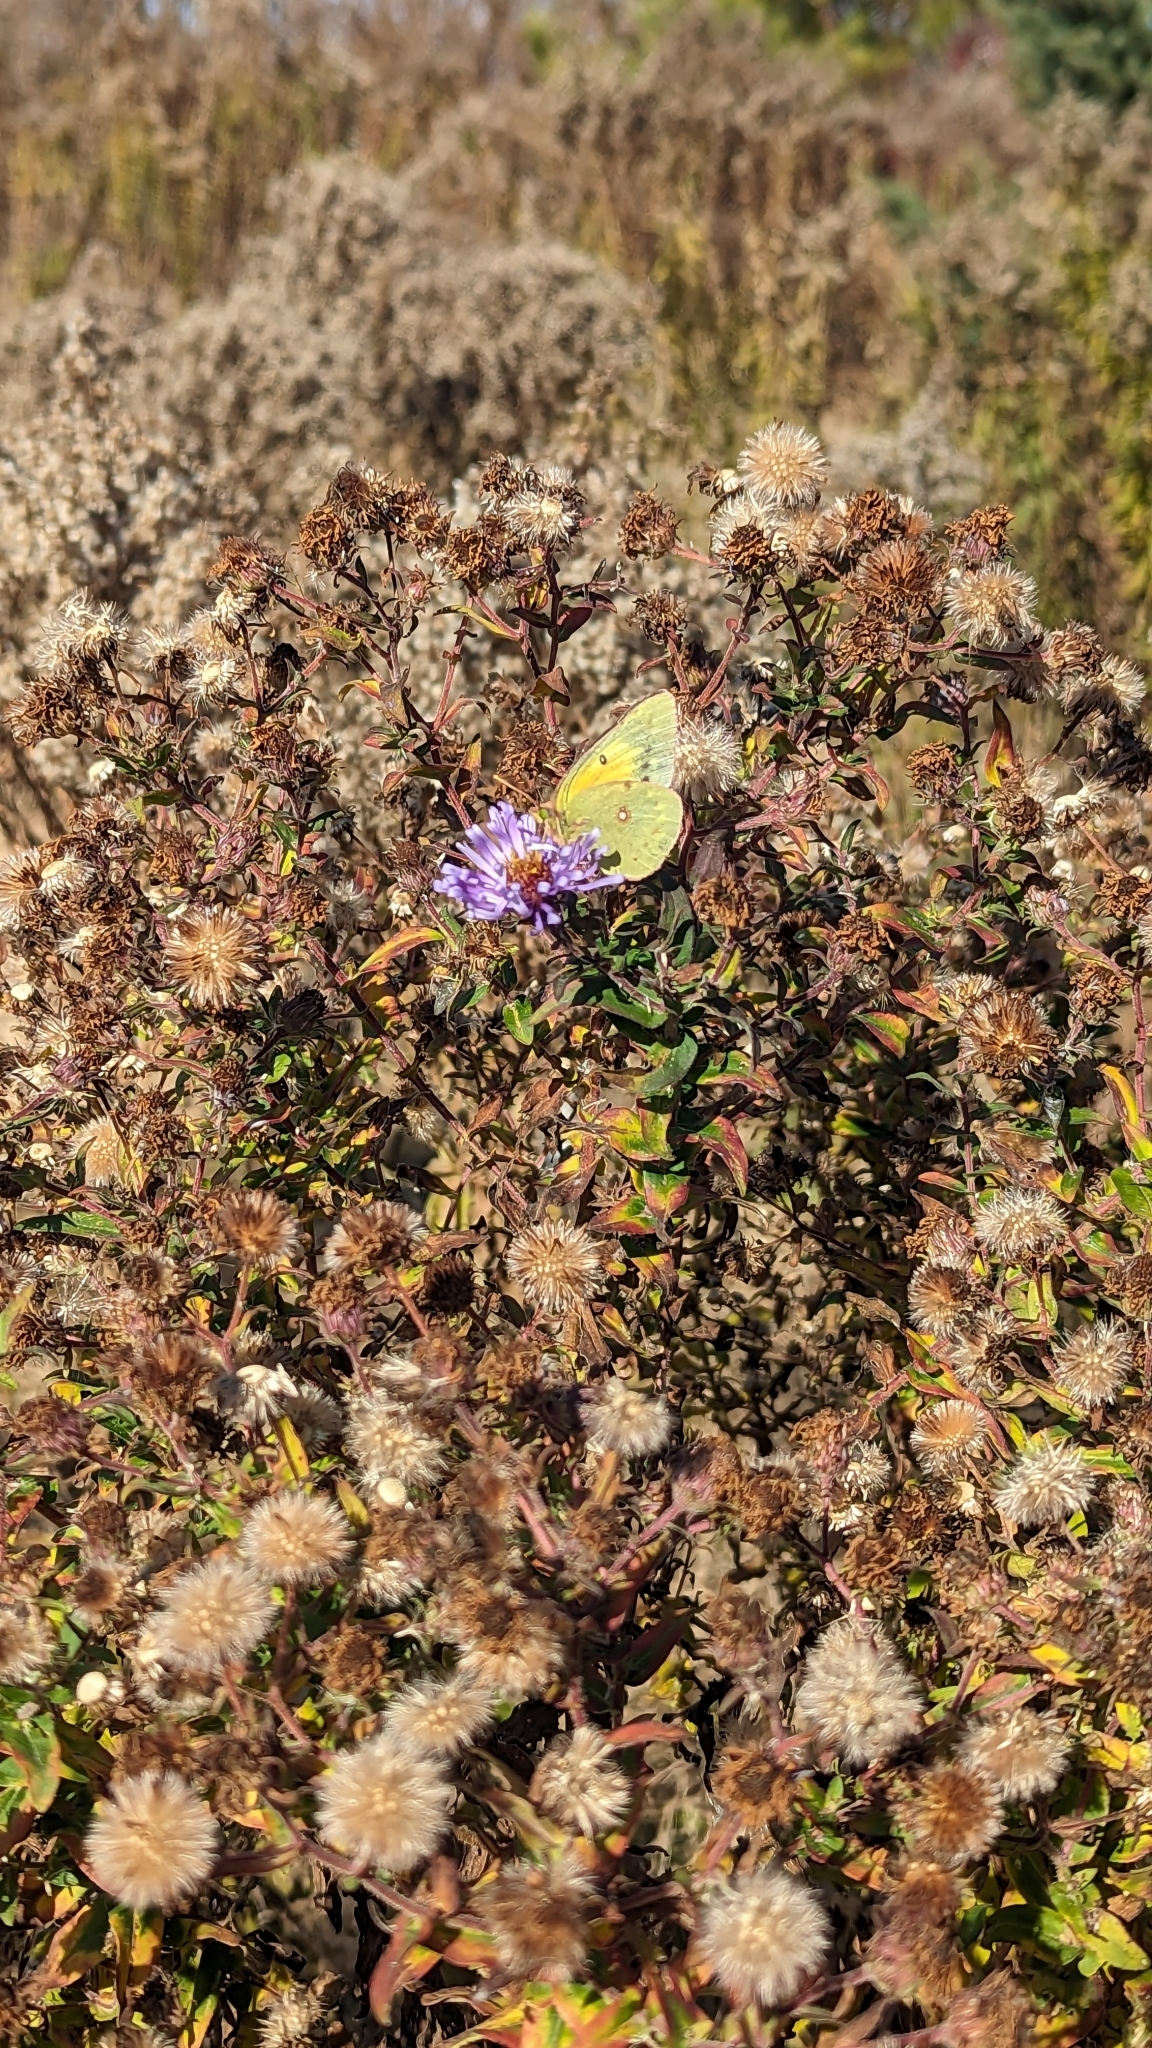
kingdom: Animalia
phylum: Arthropoda
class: Insecta
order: Lepidoptera
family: Pieridae
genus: Colias
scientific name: Colias eurytheme
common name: Alfalfa butterfly
